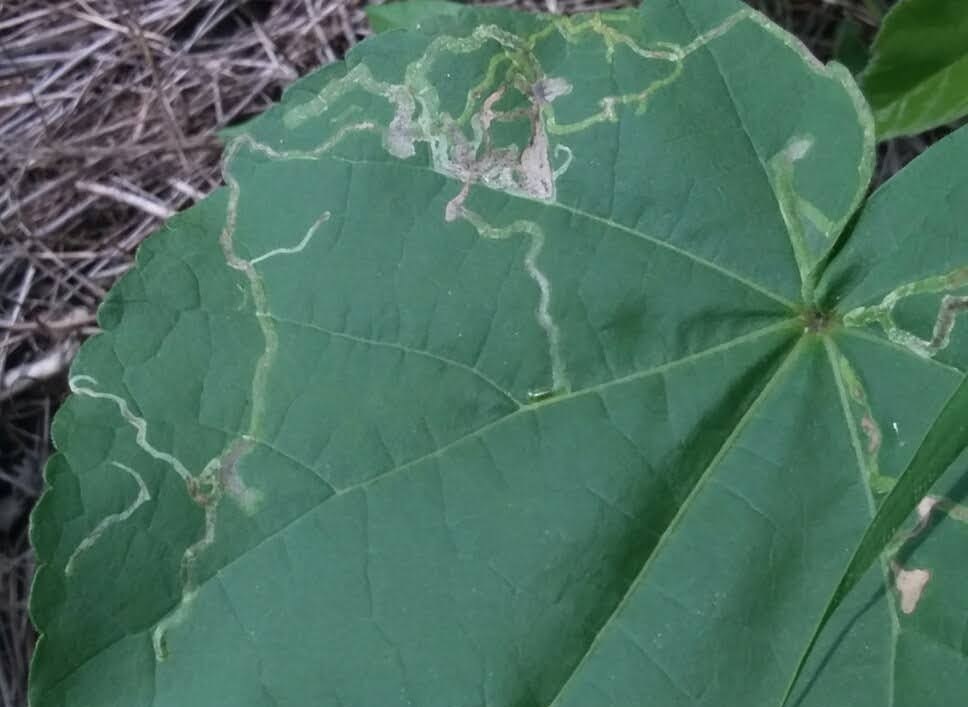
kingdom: Animalia
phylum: Arthropoda
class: Insecta
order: Diptera
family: Agromyzidae
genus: Calycomyza
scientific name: Calycomyza malvae
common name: Mallow leaf miner
